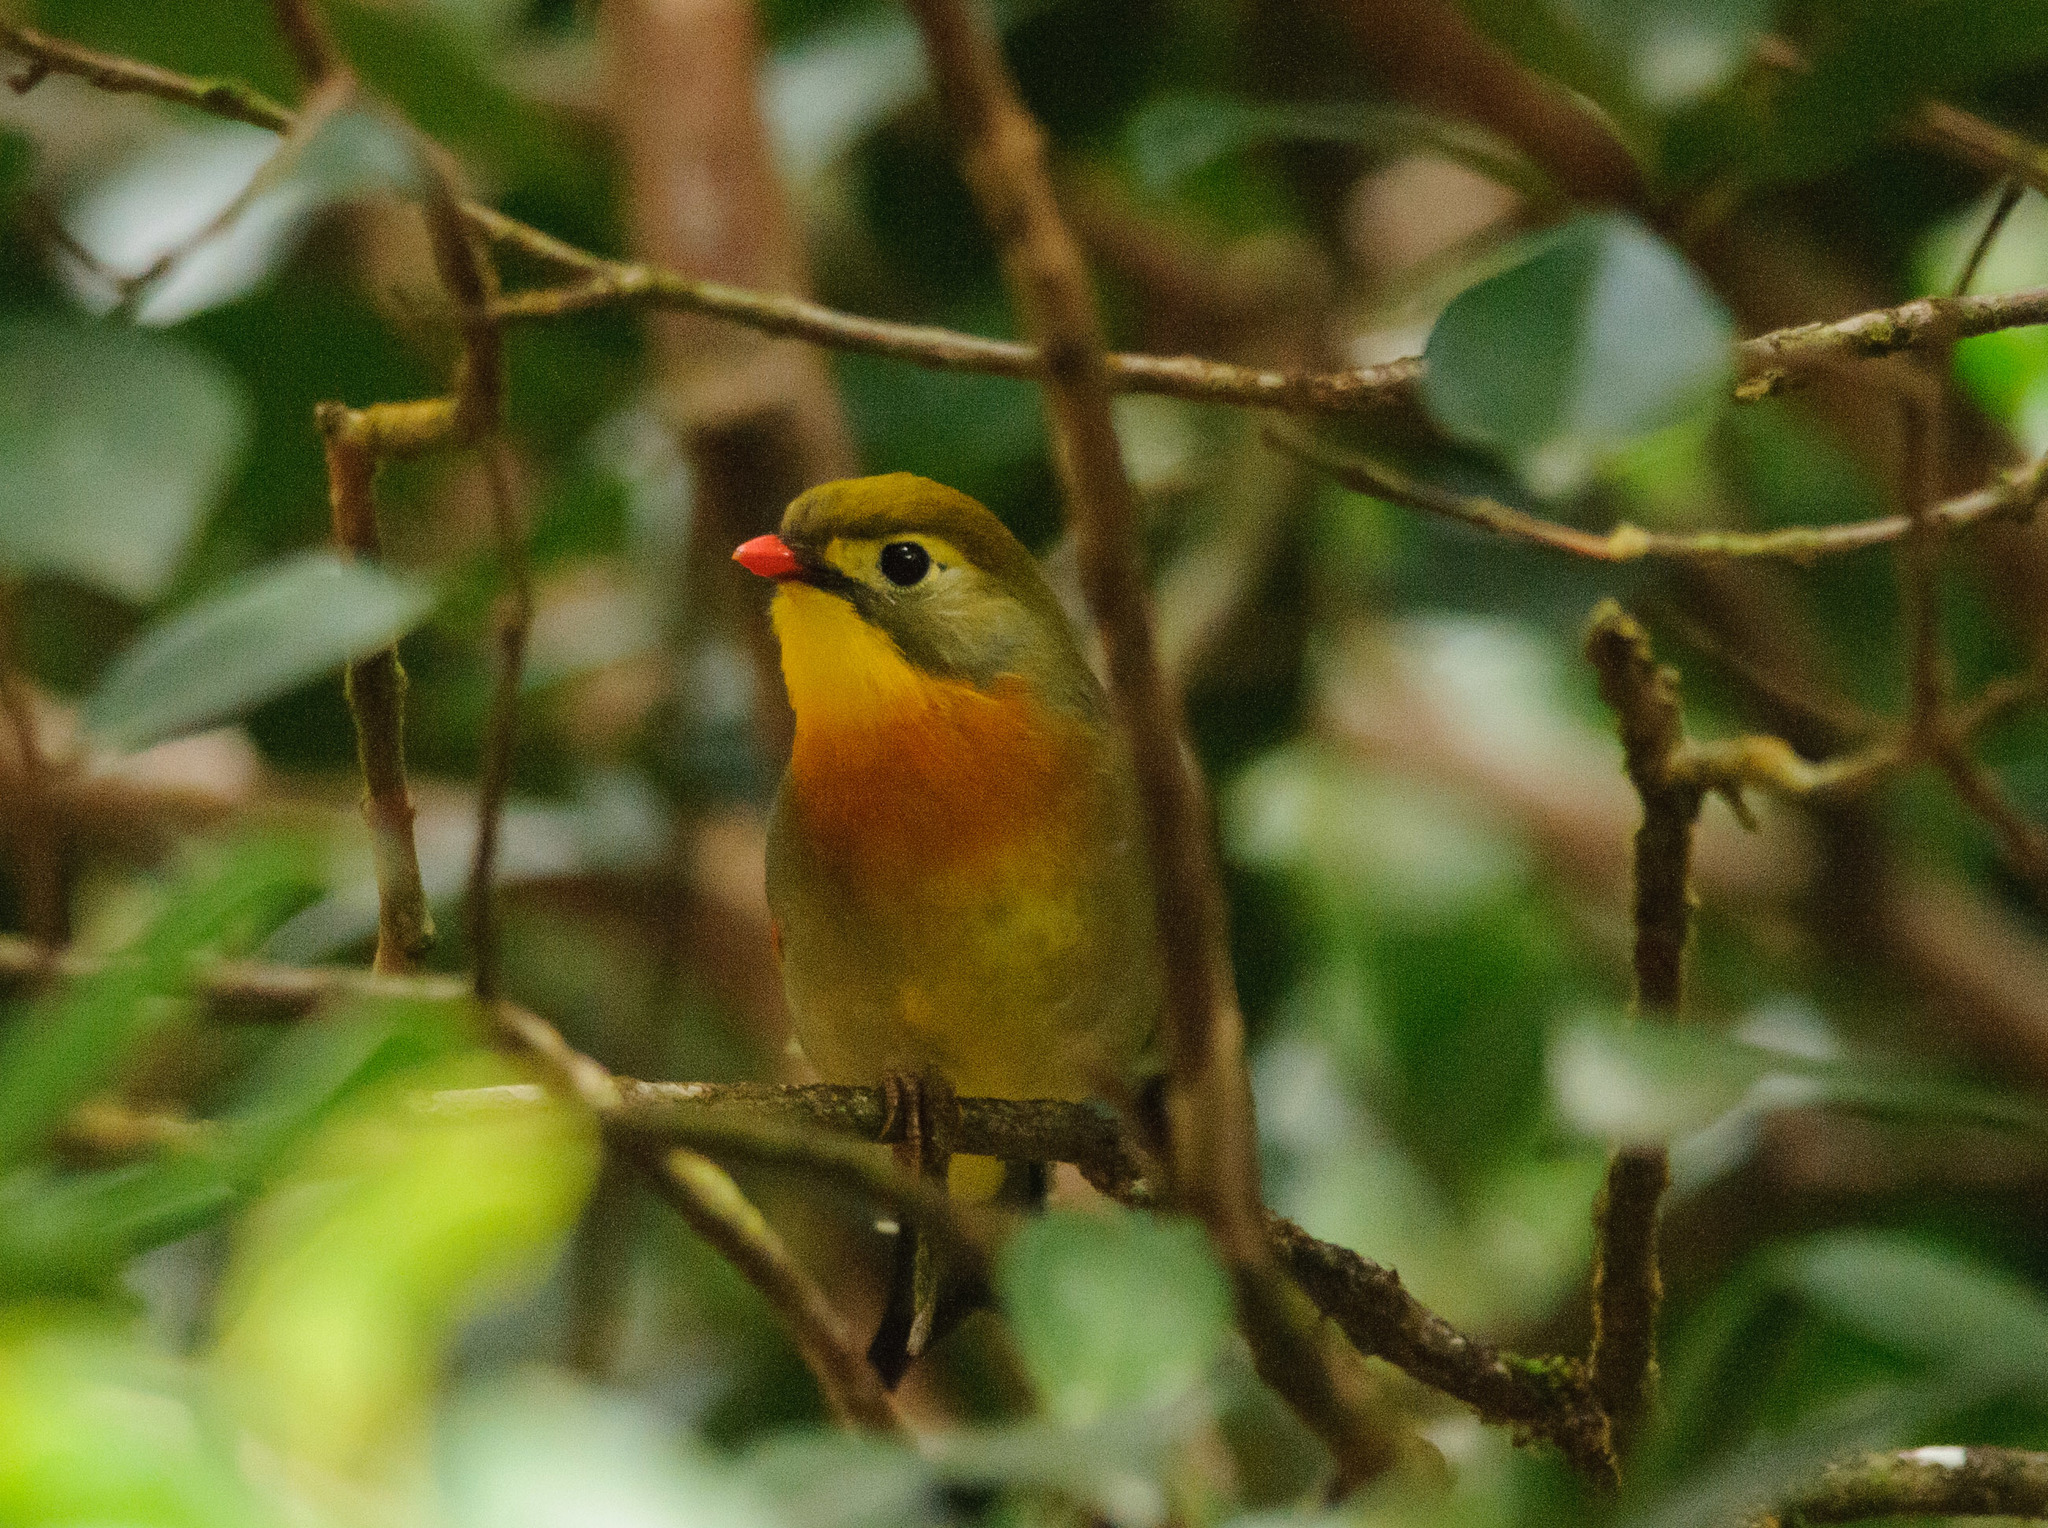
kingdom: Animalia
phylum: Chordata
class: Aves
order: Passeriformes
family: Leiothrichidae
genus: Leiothrix
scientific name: Leiothrix lutea
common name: Red-billed leiothrix
